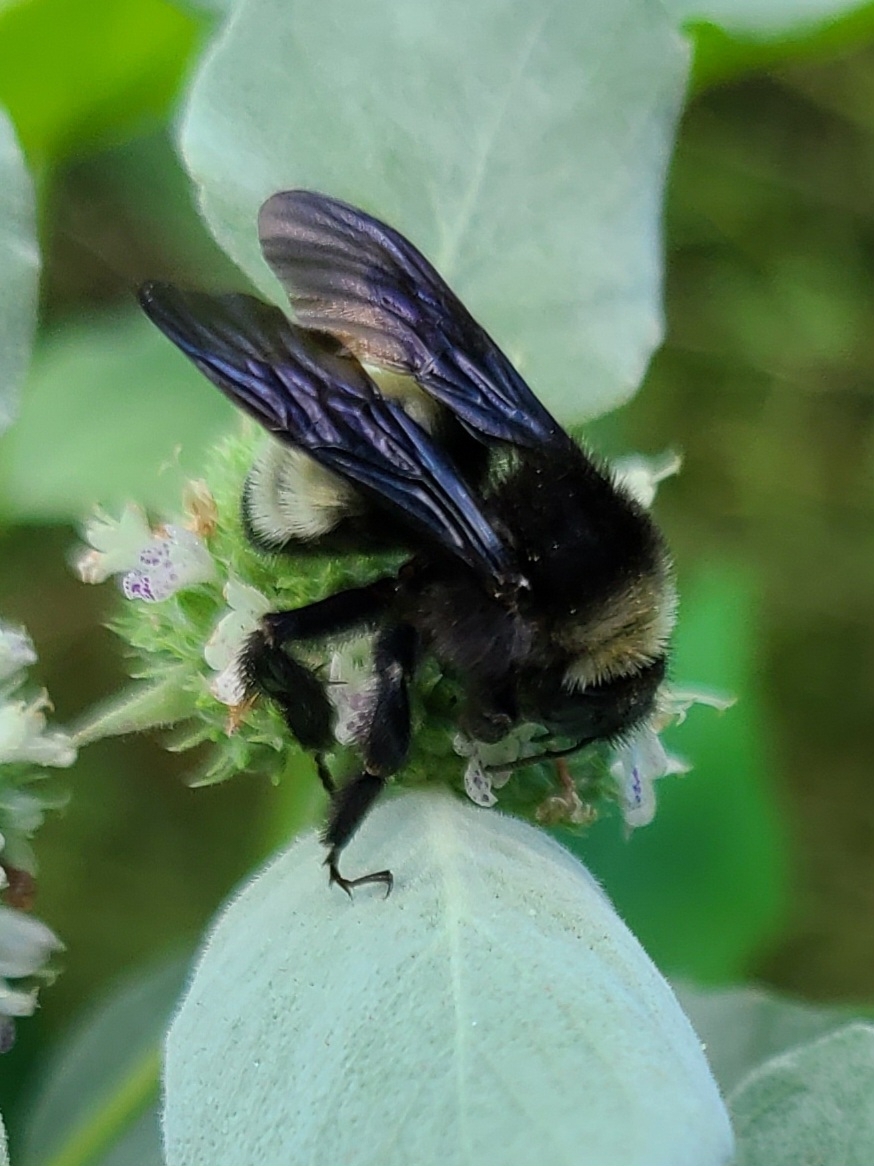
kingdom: Animalia
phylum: Arthropoda
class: Insecta
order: Hymenoptera
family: Apidae
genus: Bombus
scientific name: Bombus pensylvanicus
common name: Bumble bee
